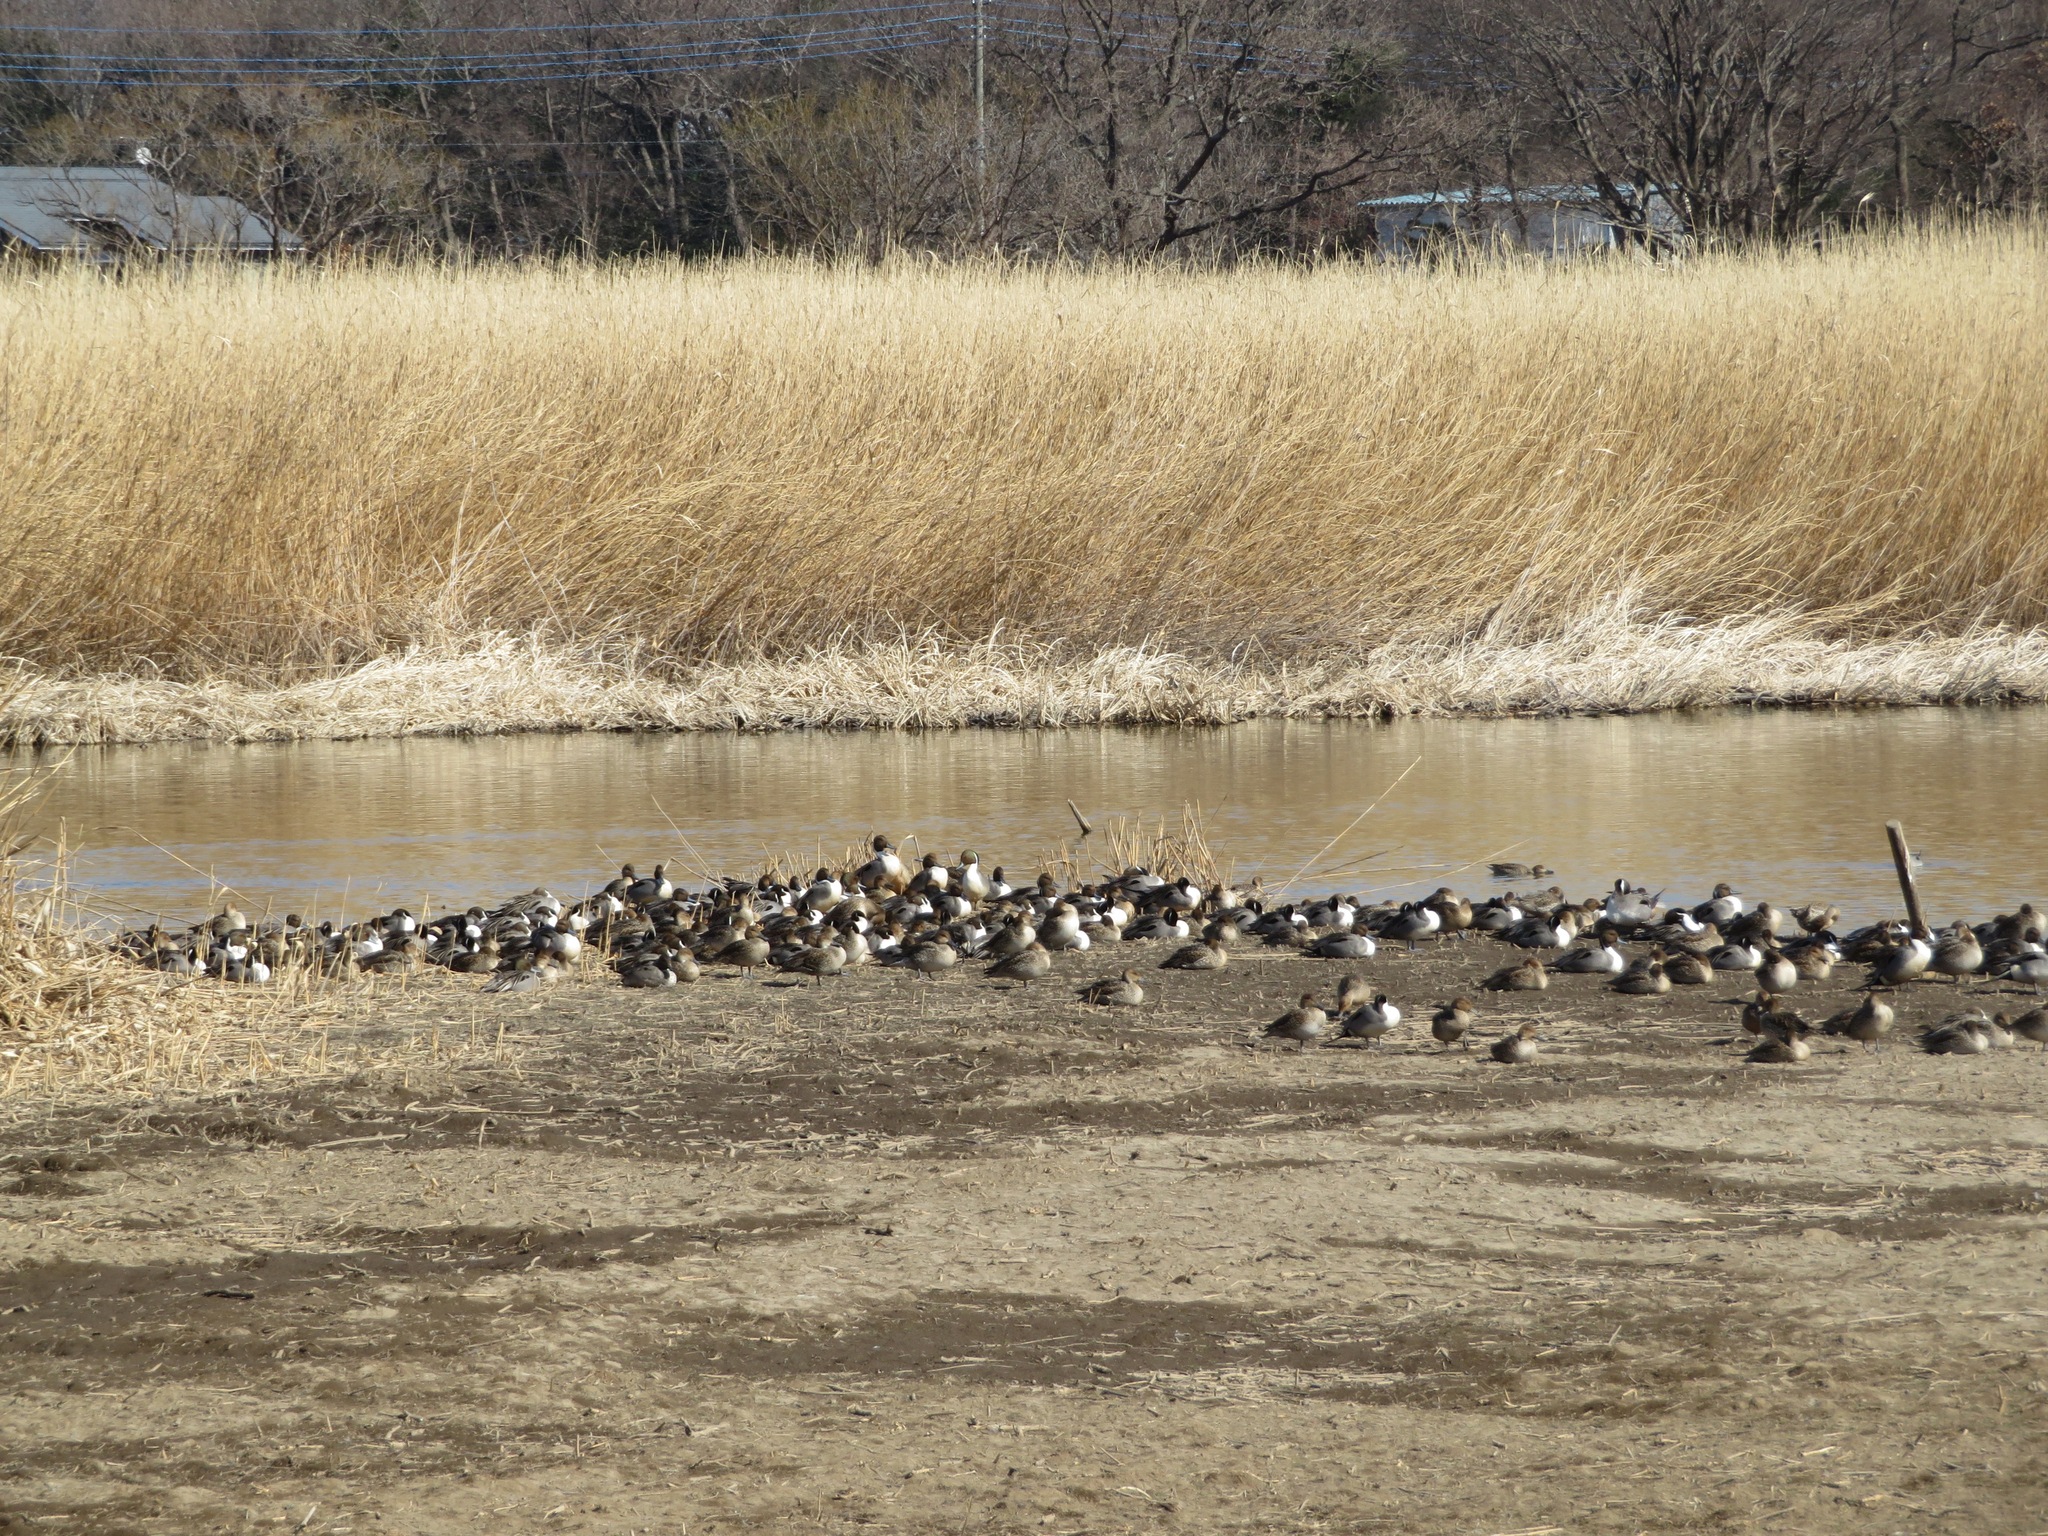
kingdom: Animalia
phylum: Chordata
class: Aves
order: Anseriformes
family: Anatidae
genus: Anas
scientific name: Anas acuta
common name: Northern pintail
